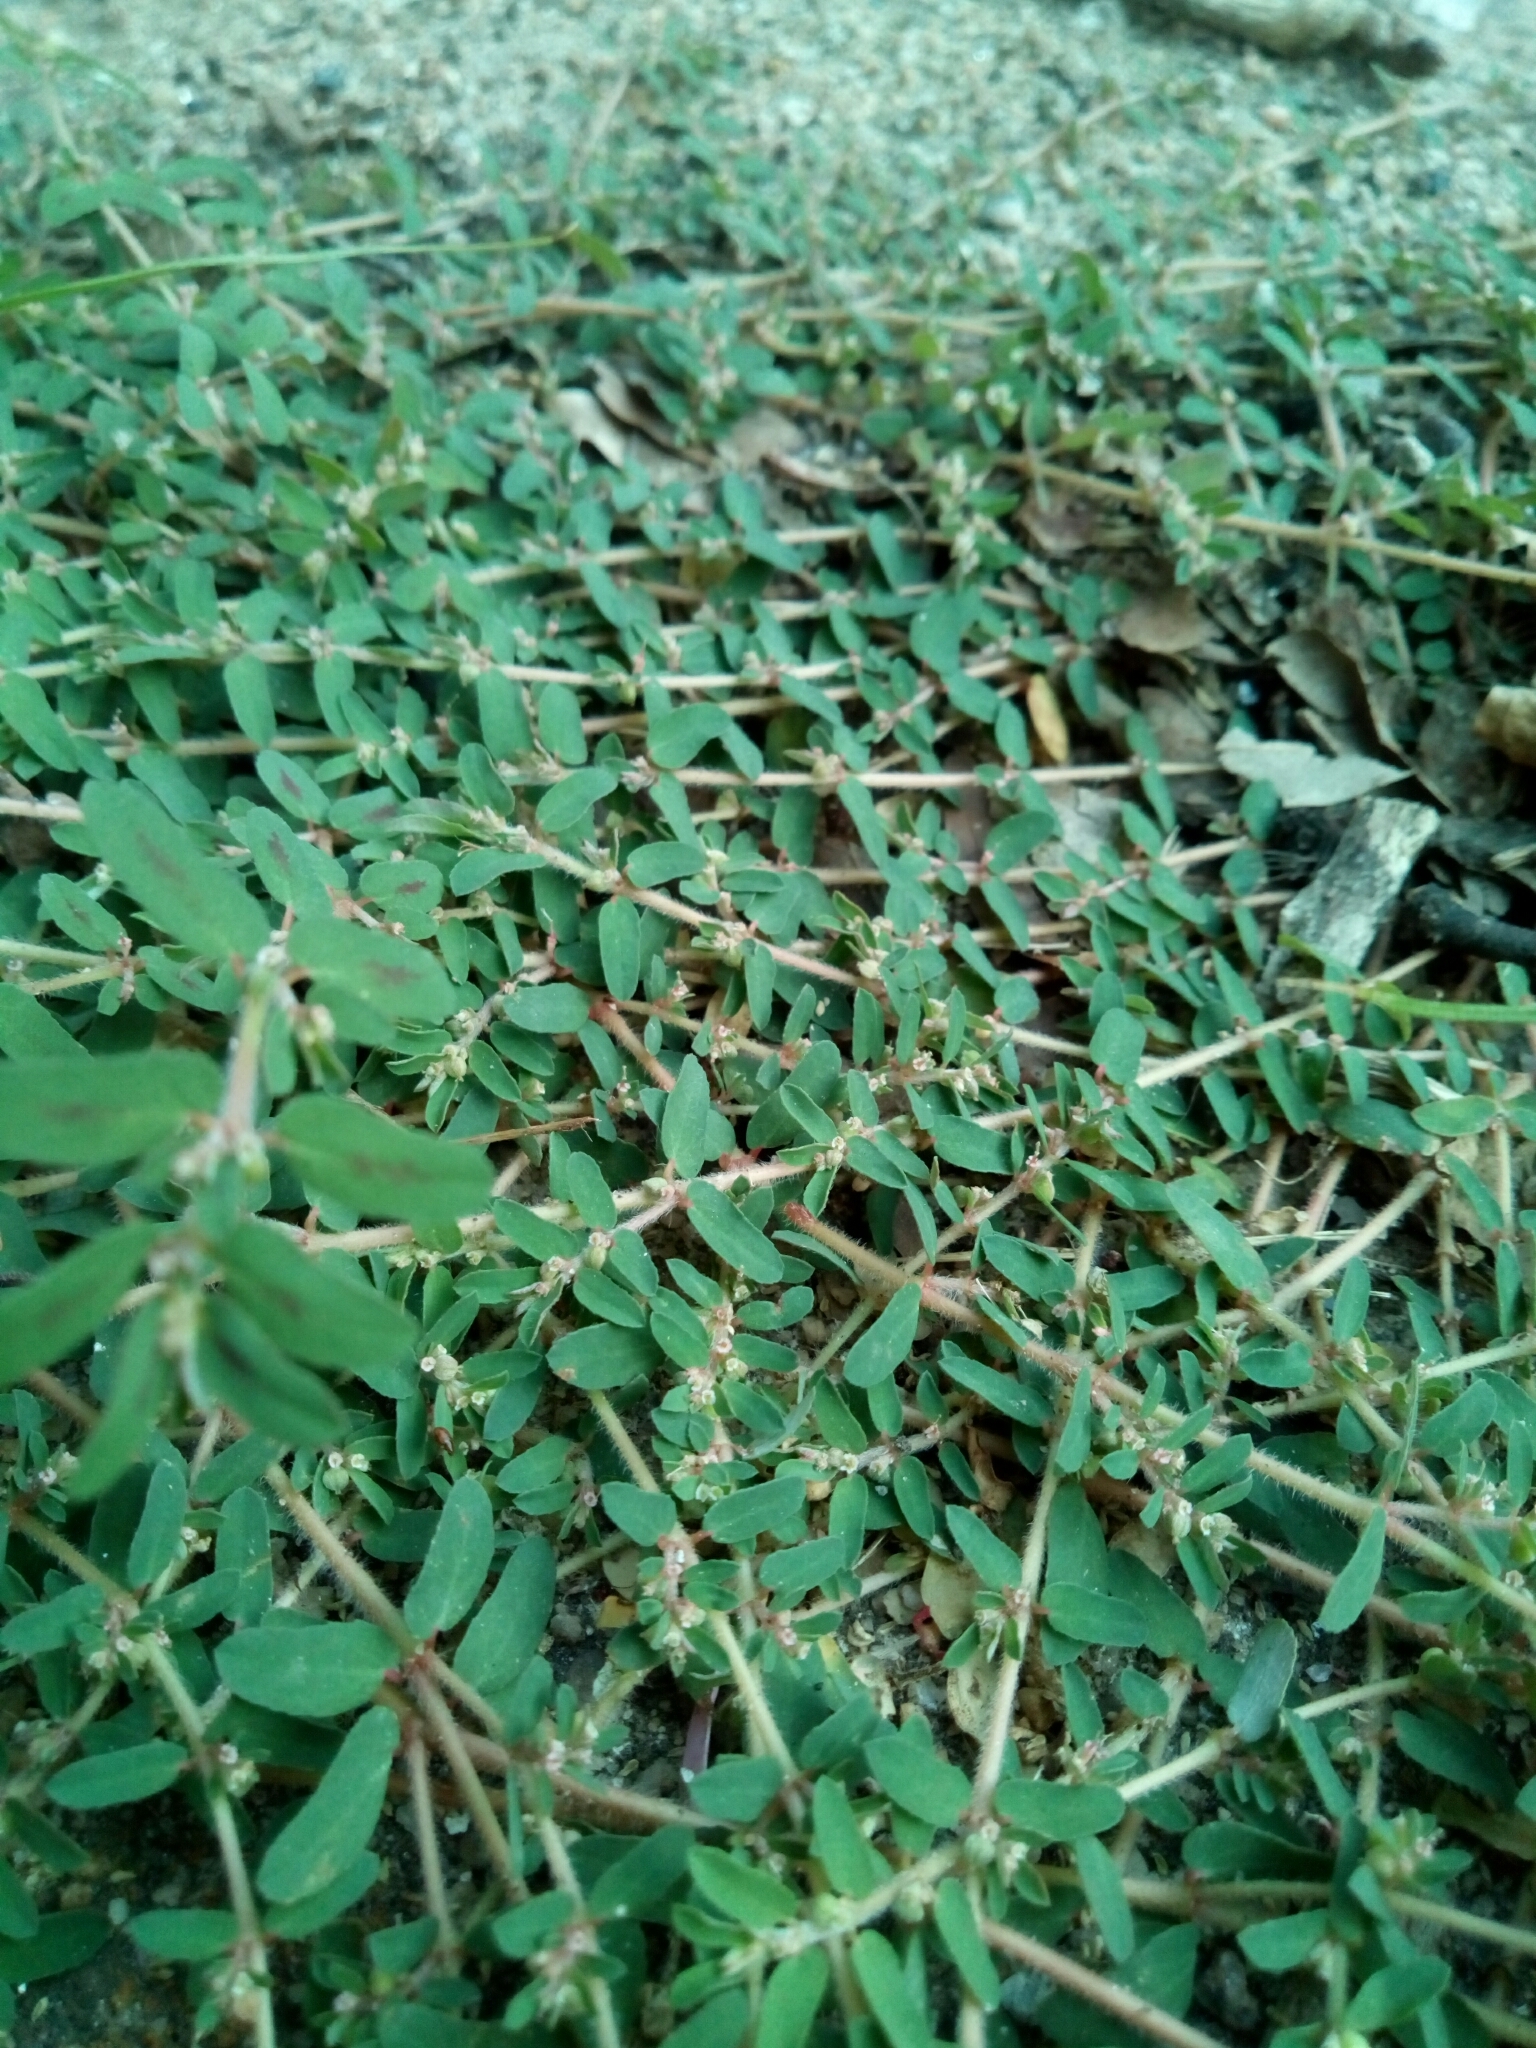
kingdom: Plantae
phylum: Tracheophyta
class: Magnoliopsida
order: Malpighiales
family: Euphorbiaceae
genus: Euphorbia
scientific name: Euphorbia maculata
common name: Spotted spurge
